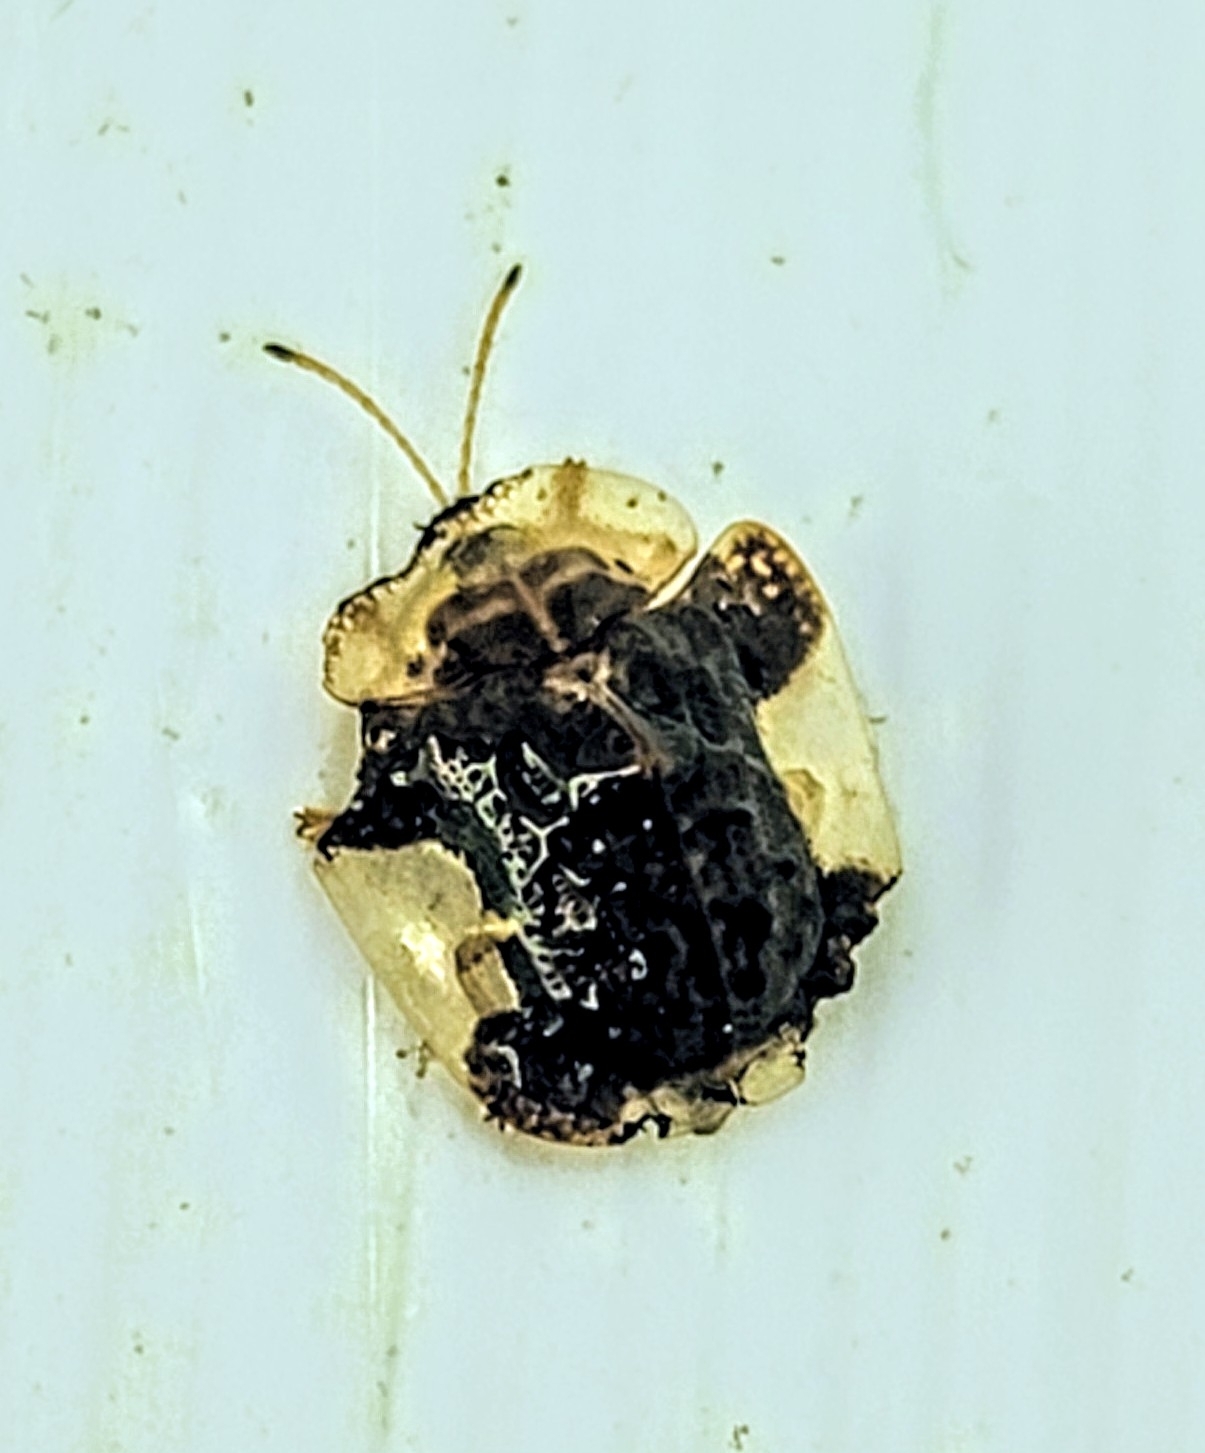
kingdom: Animalia
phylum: Arthropoda
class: Insecta
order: Coleoptera
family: Chrysomelidae
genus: Helocassis
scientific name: Helocassis clavata
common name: Clavate tortoise beetle
